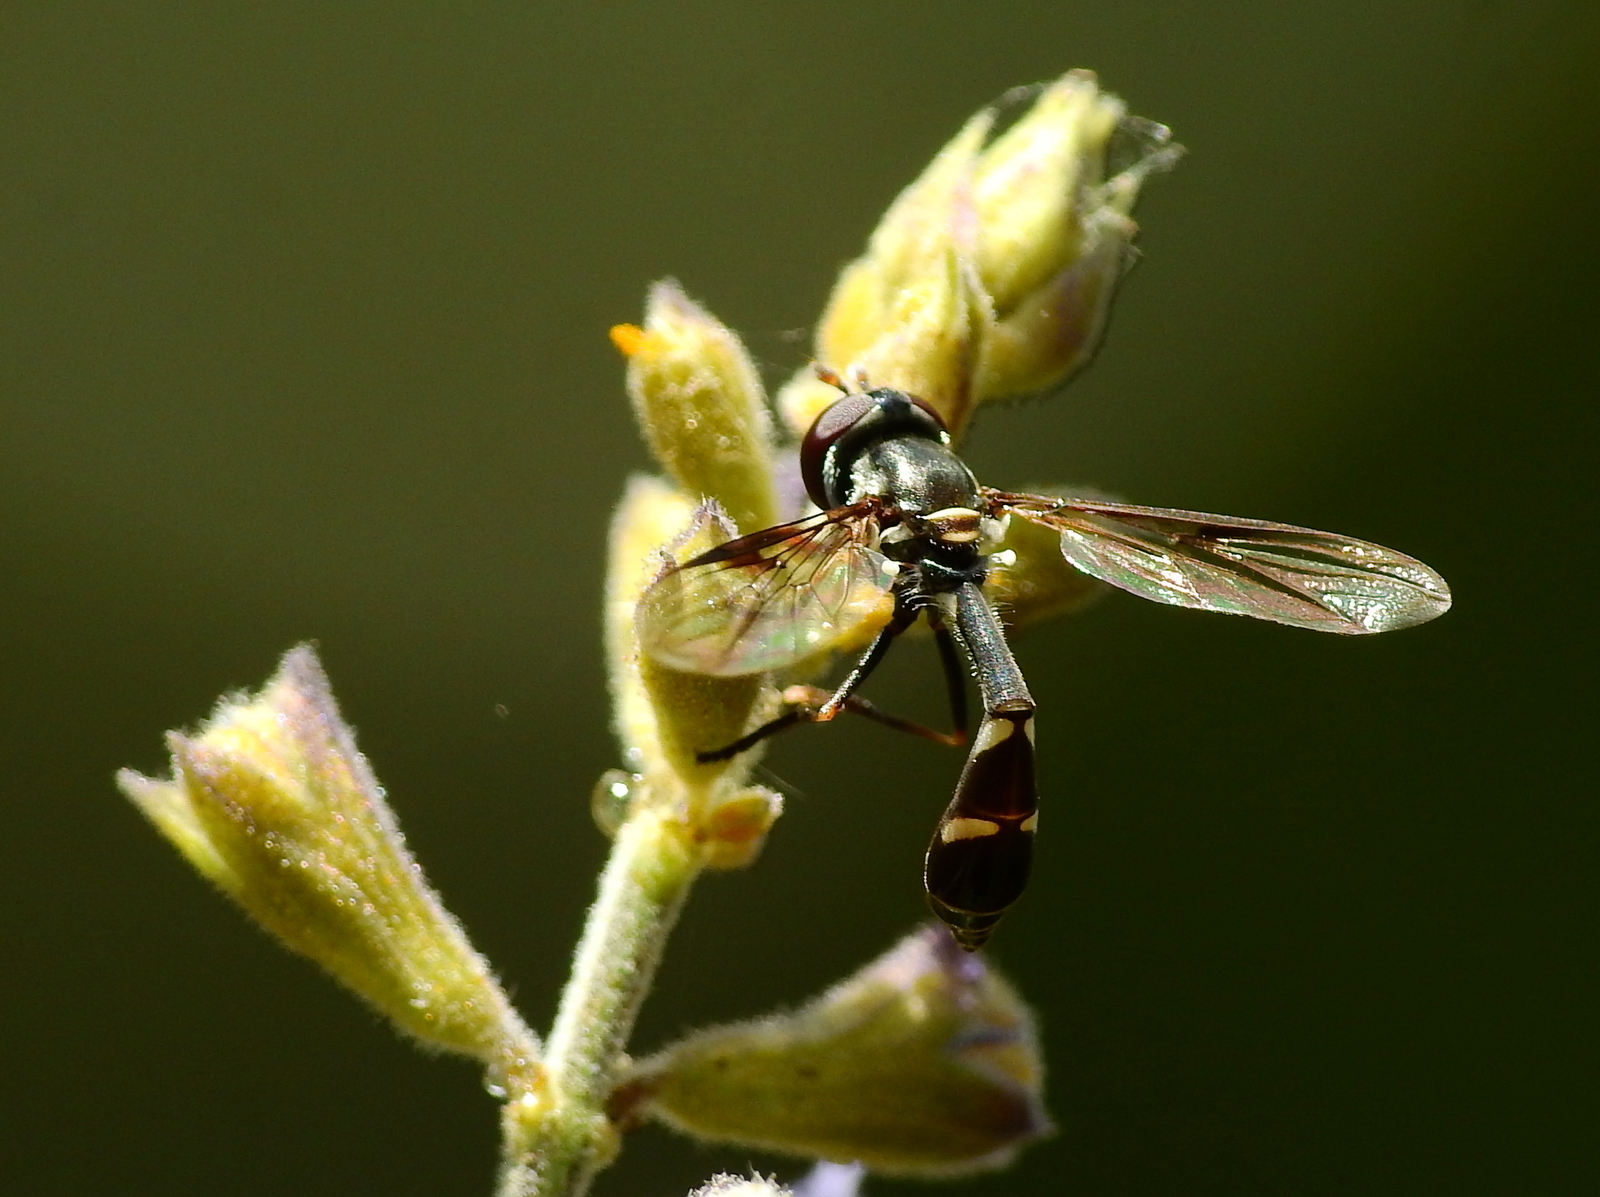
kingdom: Animalia
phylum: Arthropoda
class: Insecta
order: Diptera
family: Syrphidae
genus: Dioprosopa
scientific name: Dioprosopa clavatus
